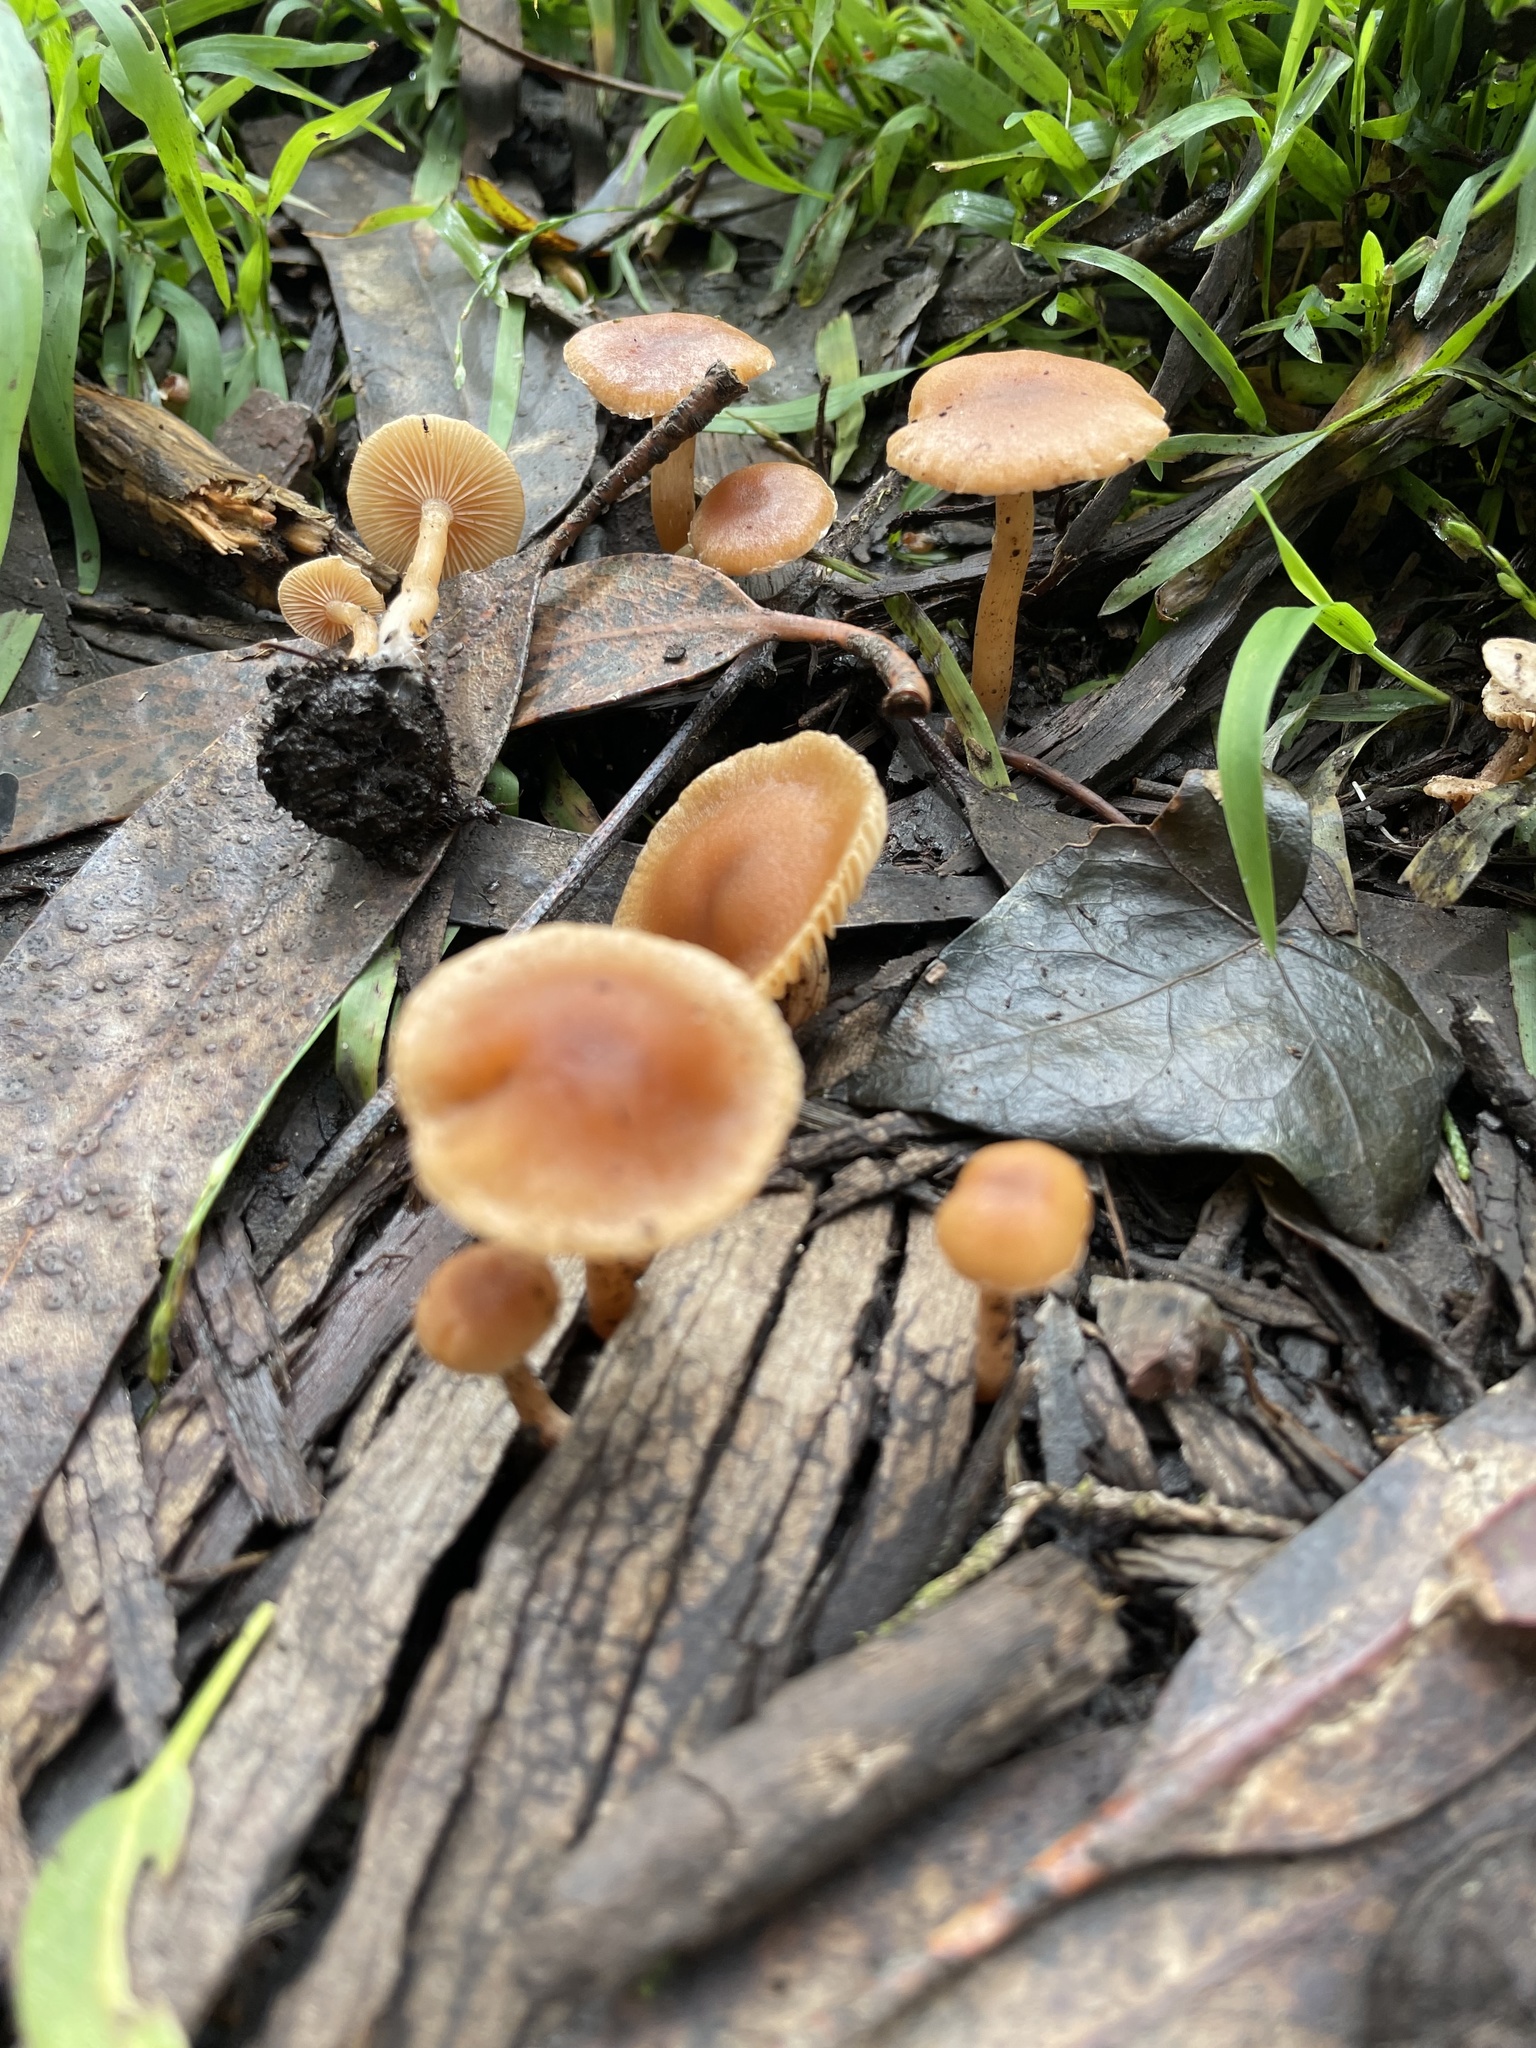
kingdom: Fungi
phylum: Basidiomycota
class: Agaricomycetes
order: Agaricales
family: Tubariaceae
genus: Tubaria
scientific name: Tubaria furfuracea
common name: Scurfy twiglet
